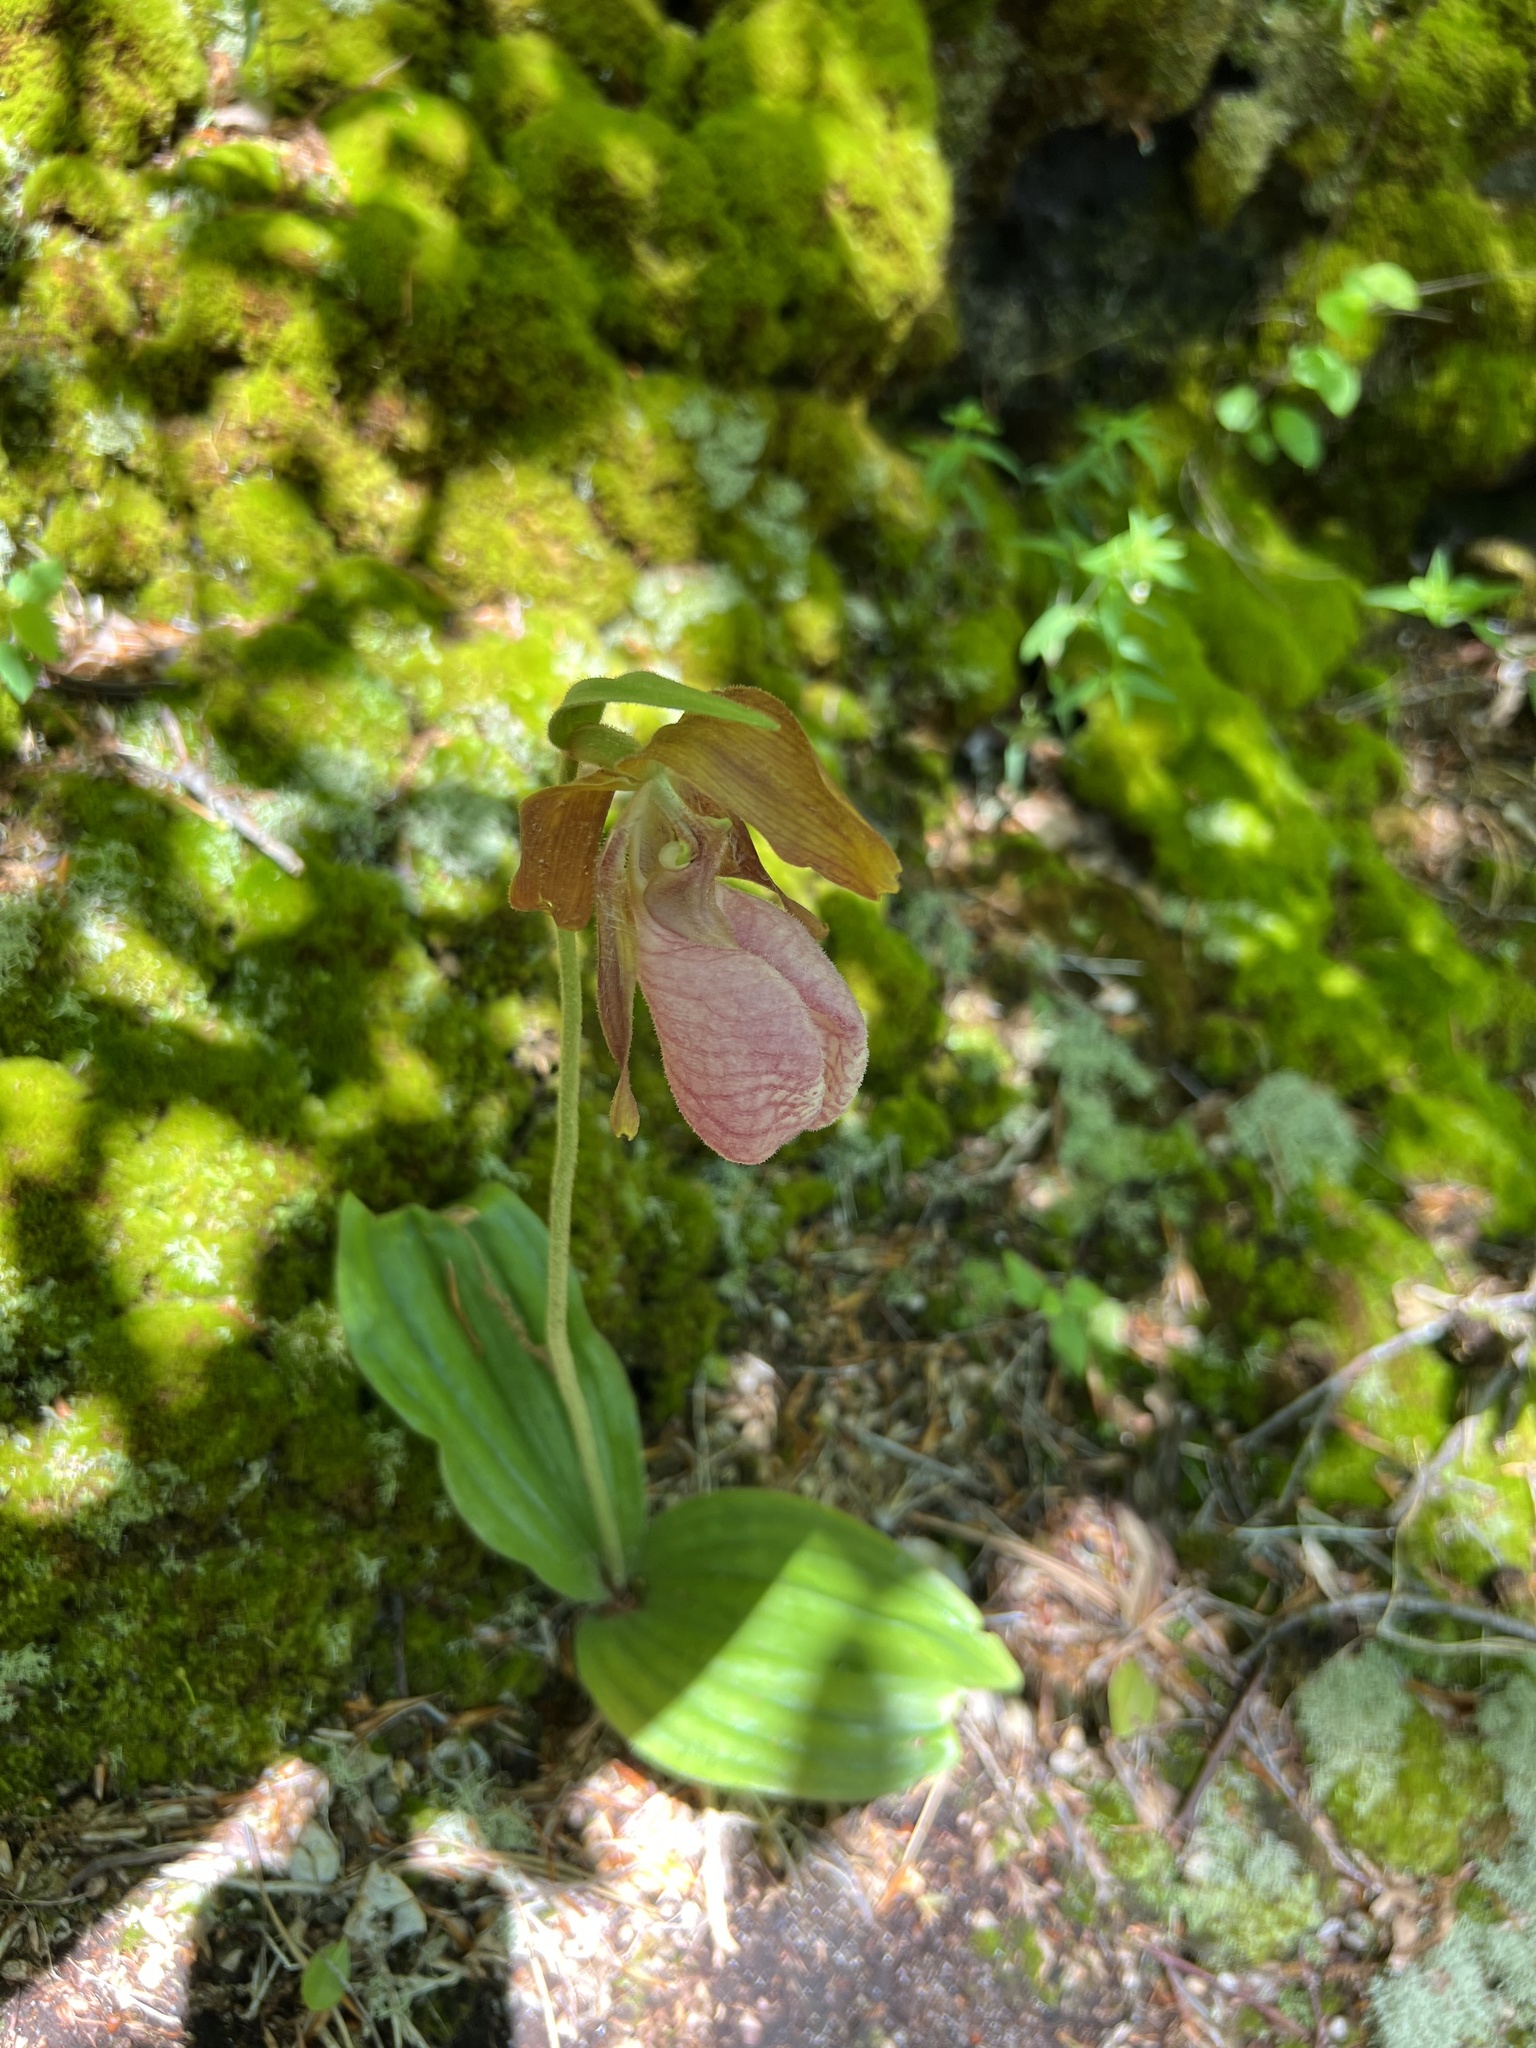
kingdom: Plantae
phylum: Tracheophyta
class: Liliopsida
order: Asparagales
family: Orchidaceae
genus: Cypripedium
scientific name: Cypripedium acaule
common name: Pink lady's-slipper
